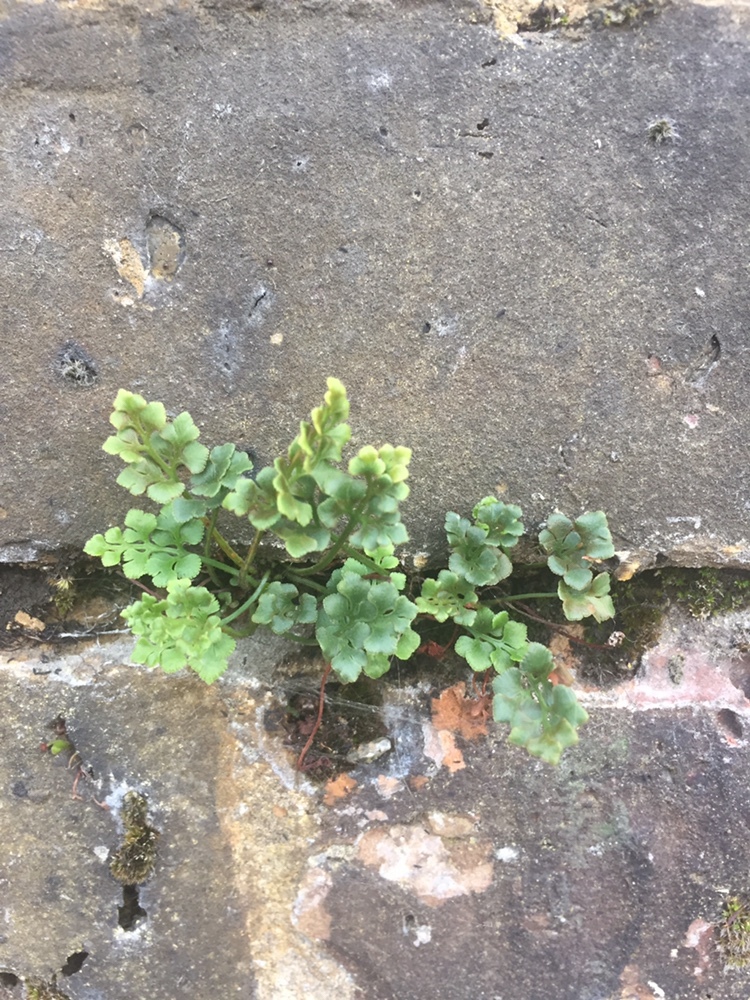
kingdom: Plantae
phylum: Tracheophyta
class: Polypodiopsida
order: Polypodiales
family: Aspleniaceae
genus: Asplenium
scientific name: Asplenium ruta-muraria
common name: Wall-rue
